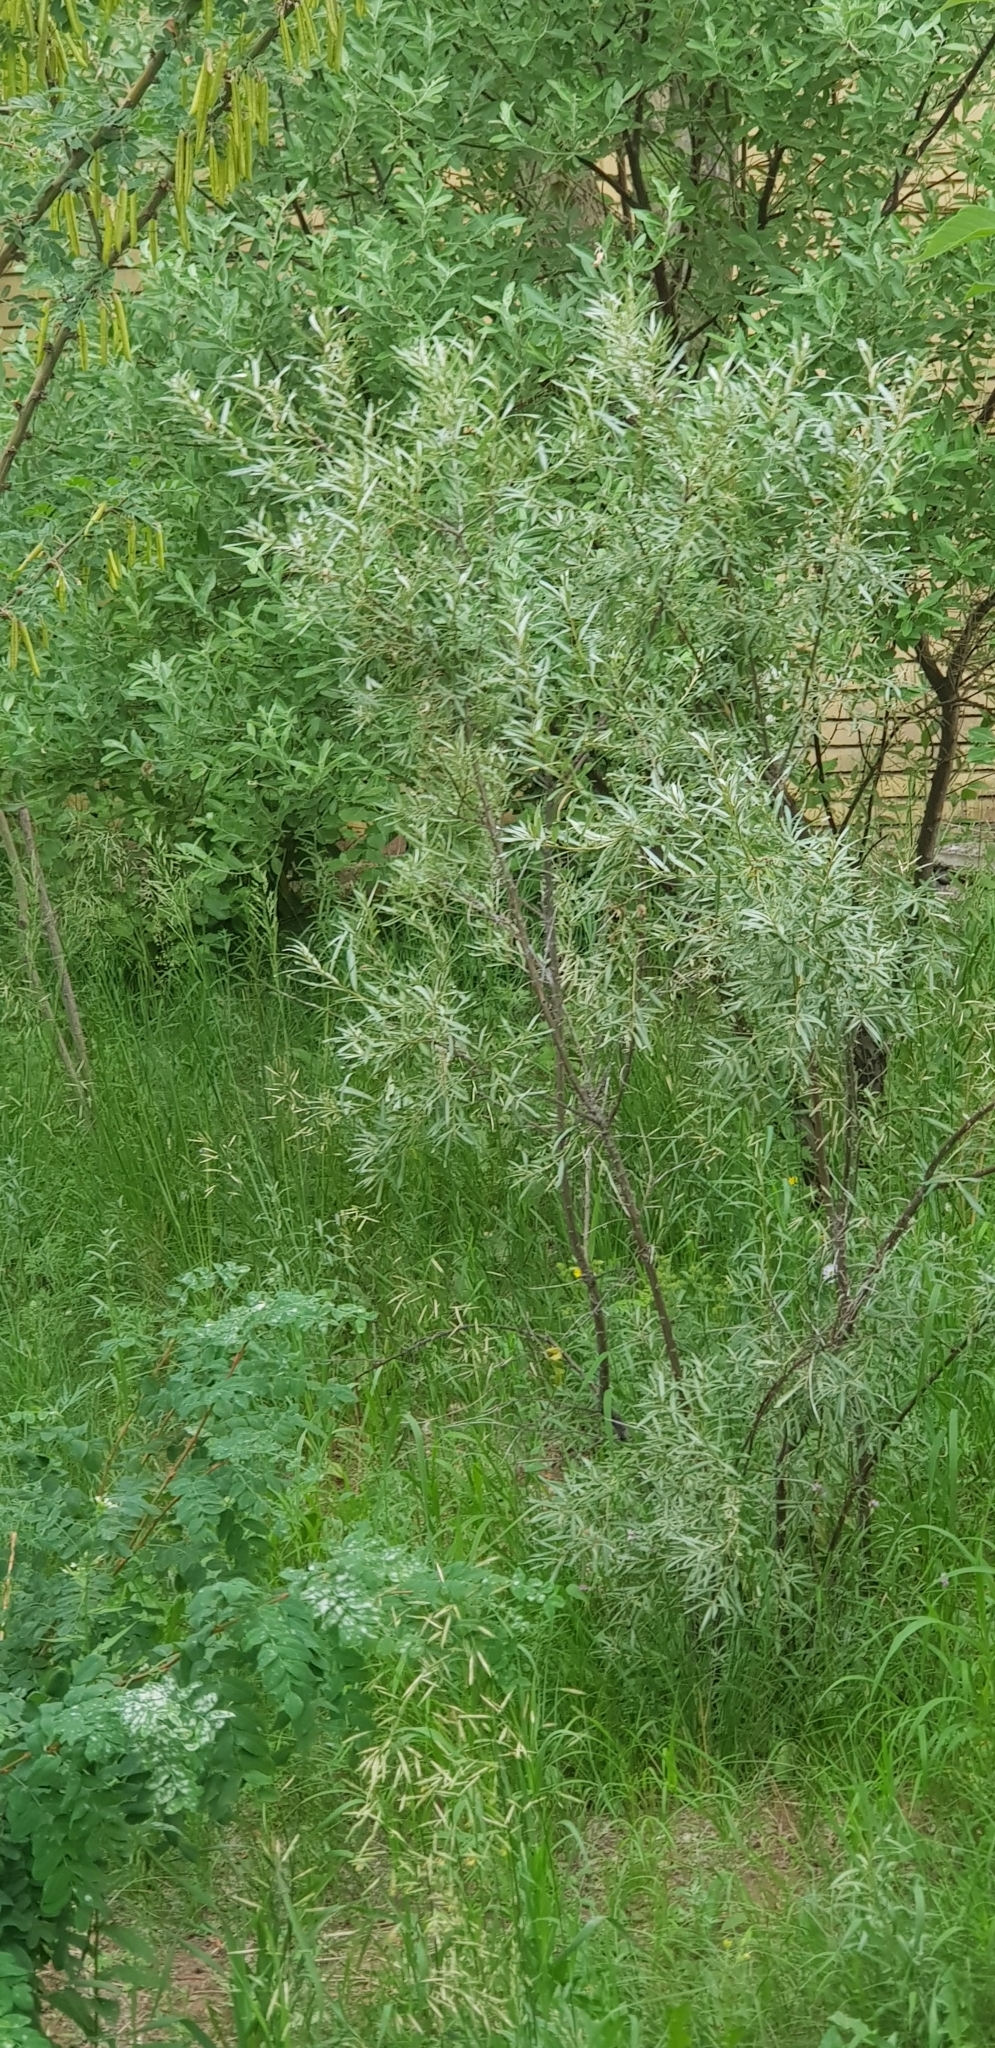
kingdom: Plantae
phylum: Tracheophyta
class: Magnoliopsida
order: Rosales
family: Elaeagnaceae
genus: Hippophae
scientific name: Hippophae rhamnoides
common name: Sea-buckthorn
